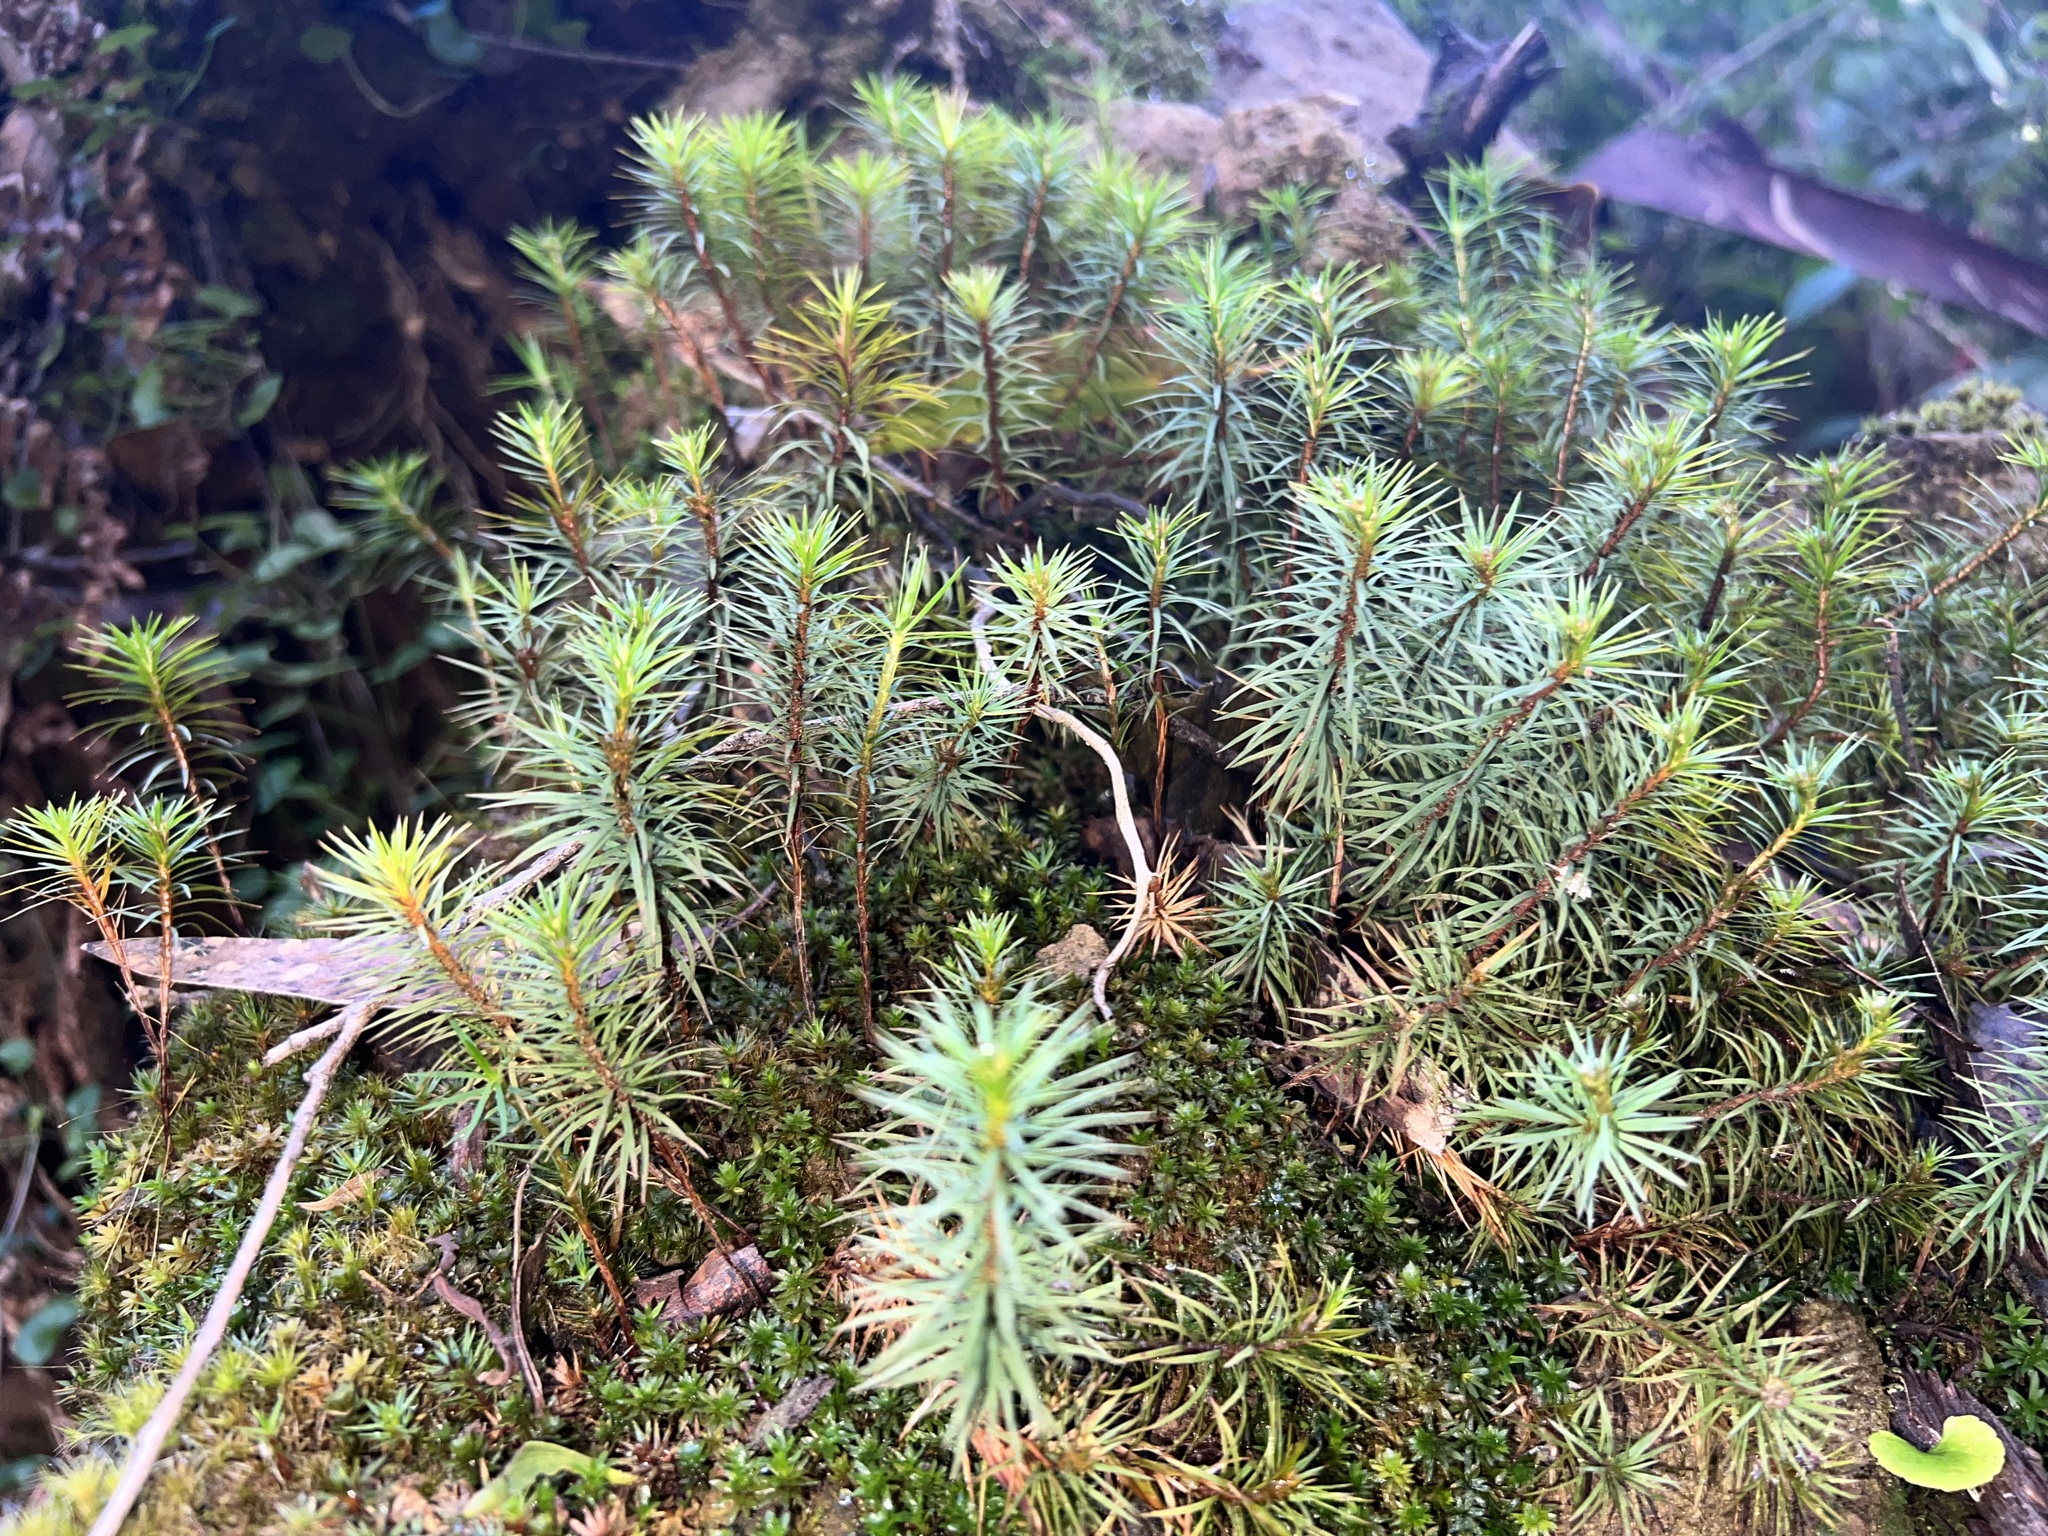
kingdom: Plantae
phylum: Bryophyta
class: Polytrichopsida
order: Polytrichales
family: Polytrichaceae
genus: Dawsonia
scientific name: Dawsonia superba
